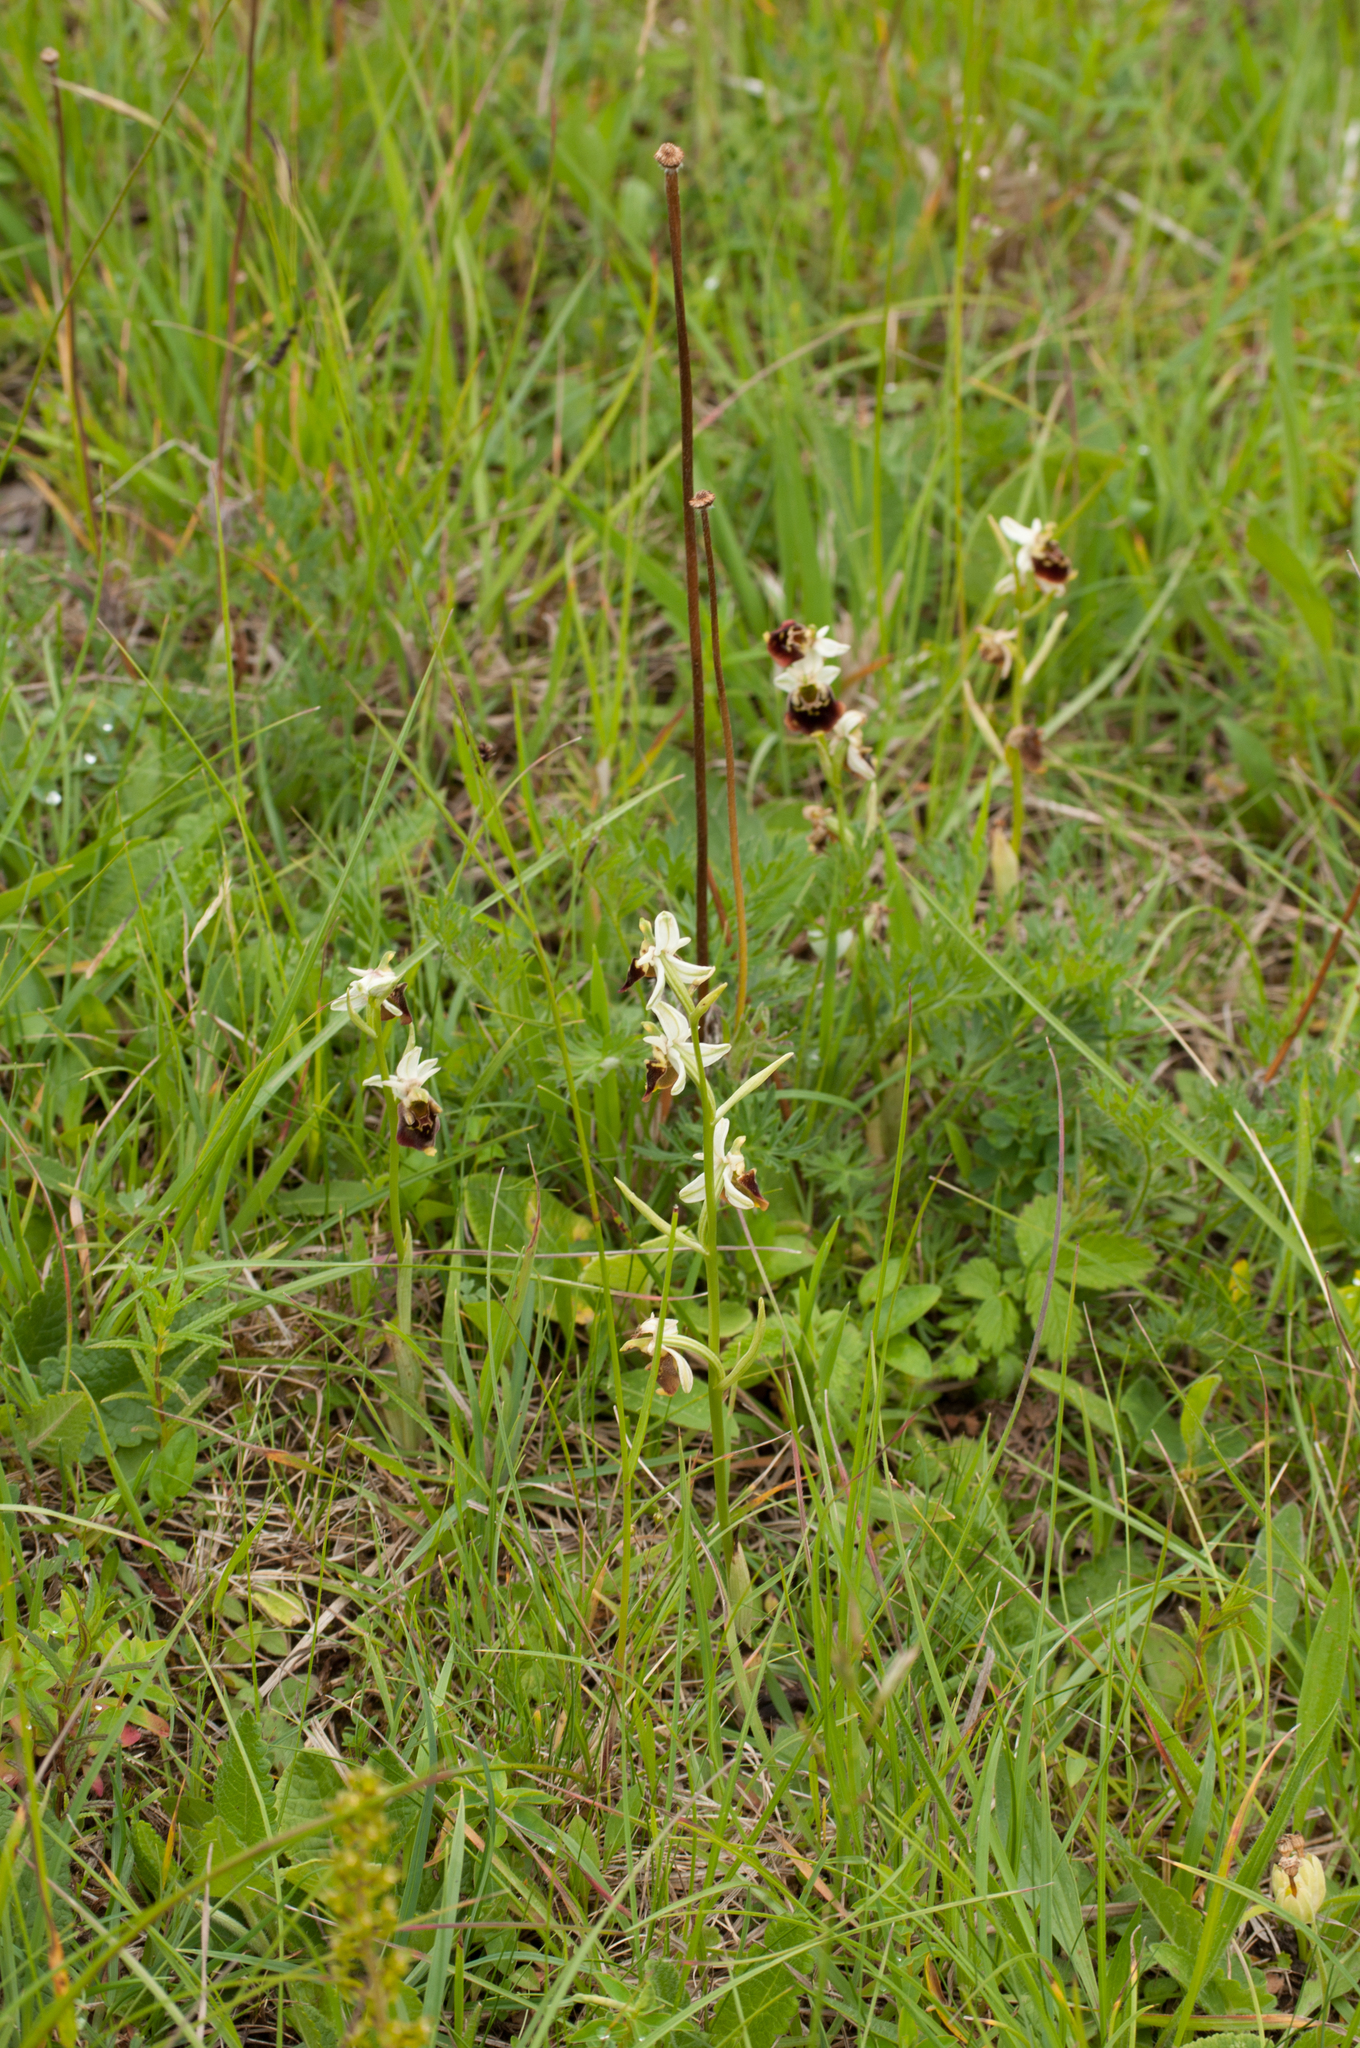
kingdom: Plantae
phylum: Tracheophyta
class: Liliopsida
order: Asparagales
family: Orchidaceae
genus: Ophrys
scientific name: Ophrys holosericea
